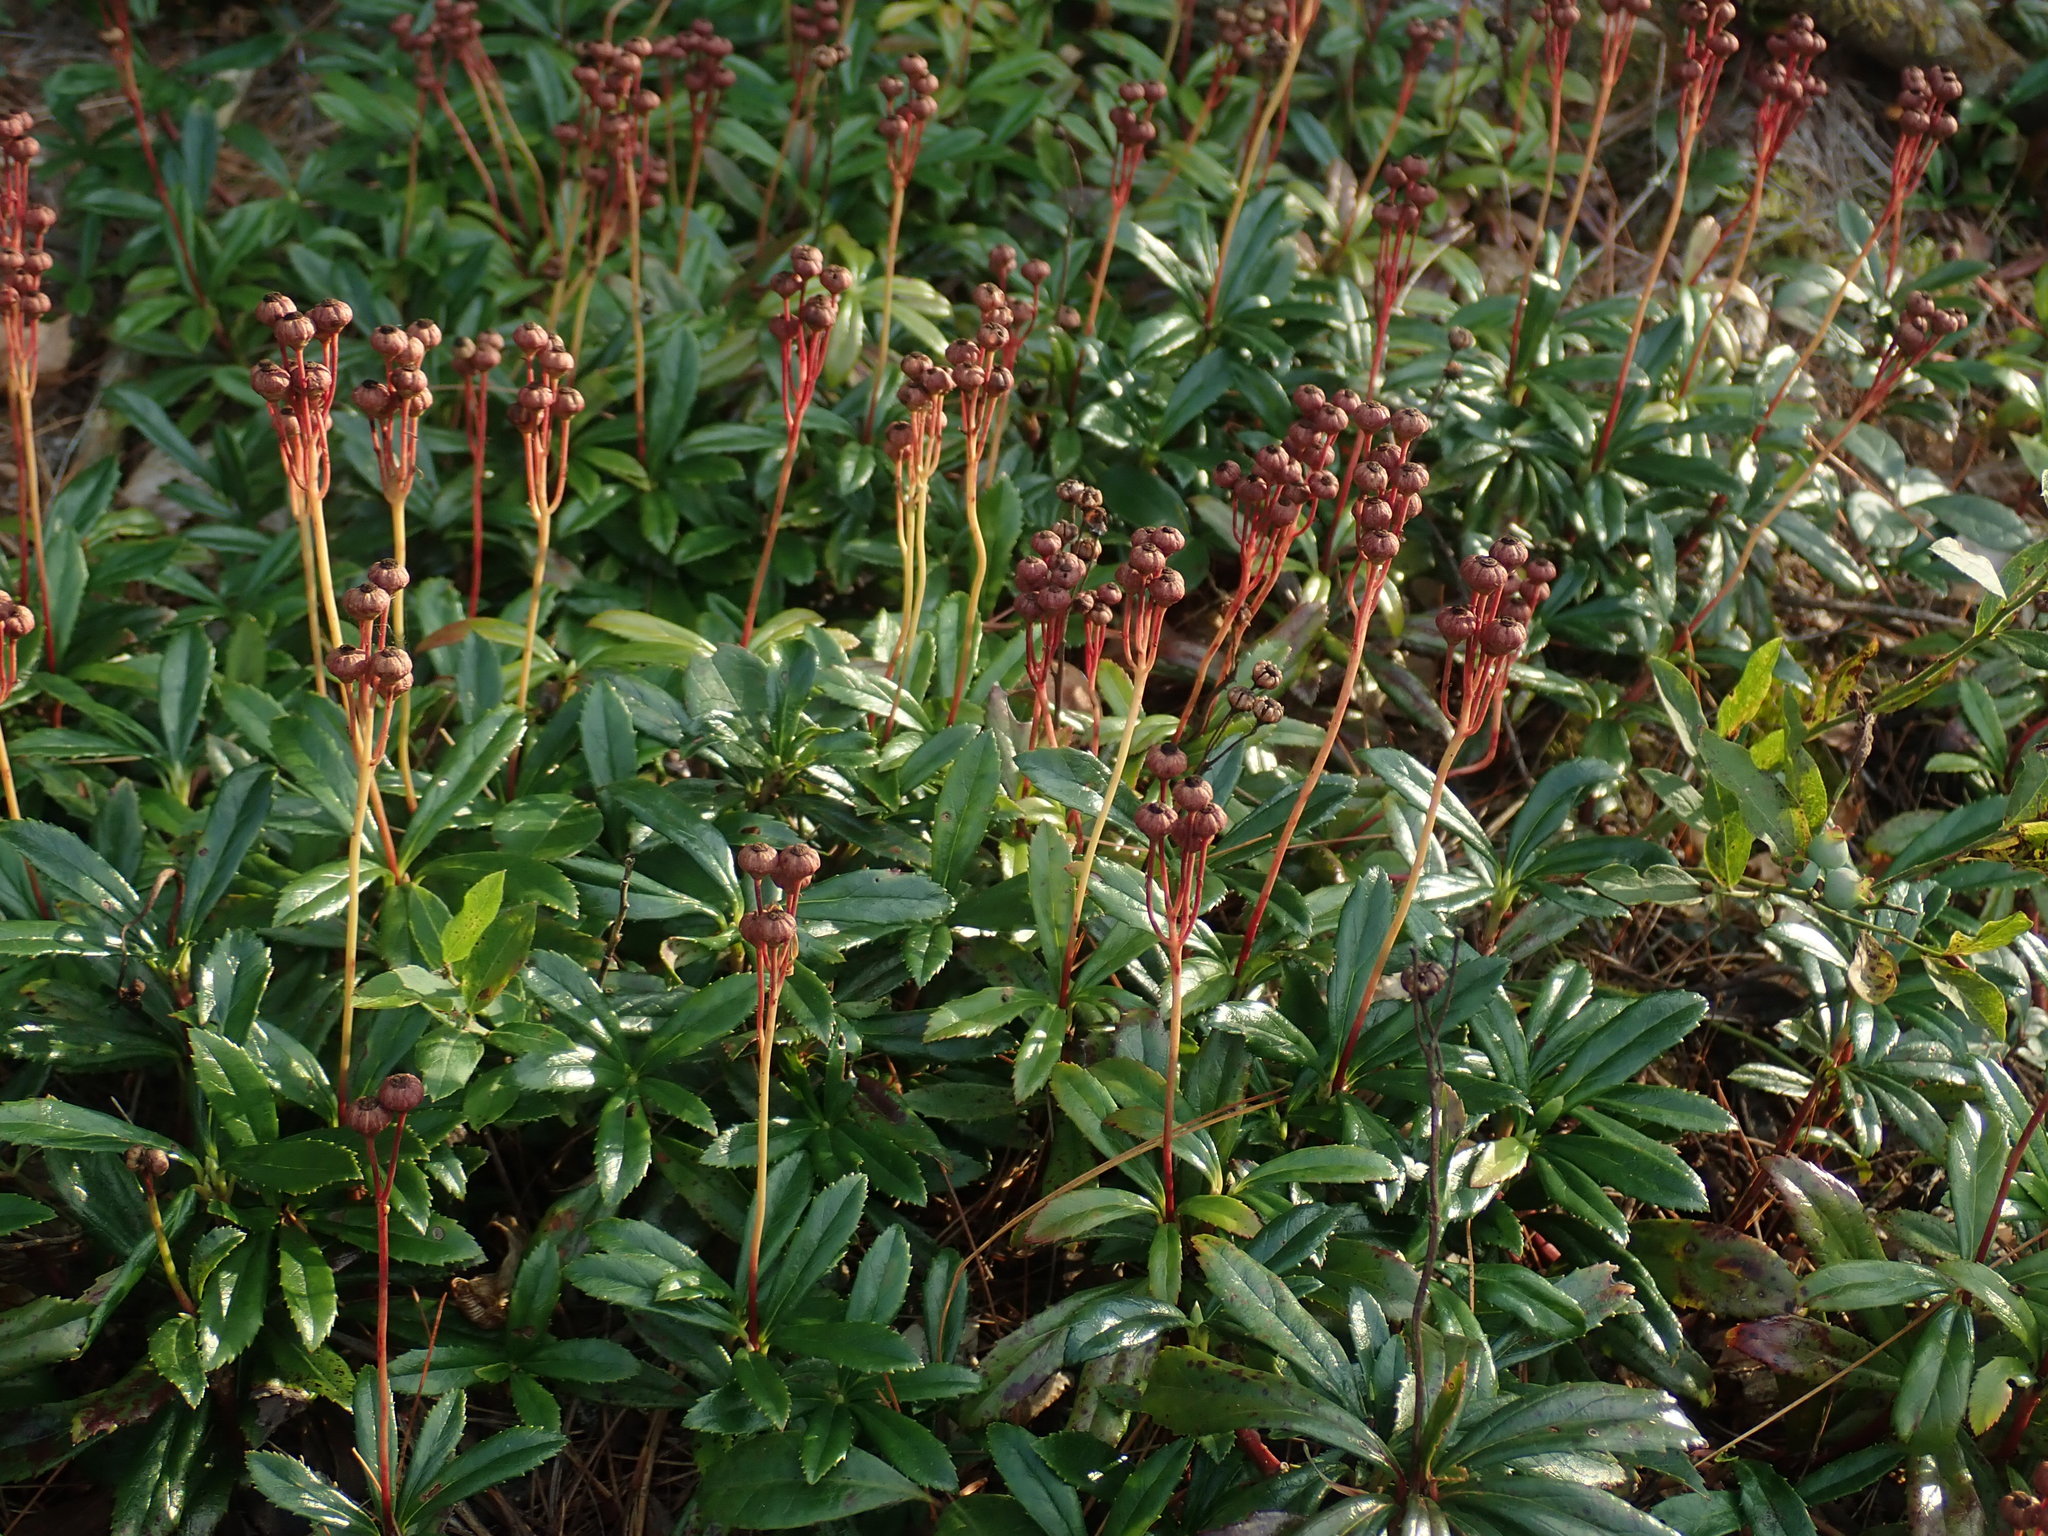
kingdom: Plantae
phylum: Tracheophyta
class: Magnoliopsida
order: Ericales
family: Ericaceae
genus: Chimaphila
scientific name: Chimaphila umbellata
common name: Pipsissewa
